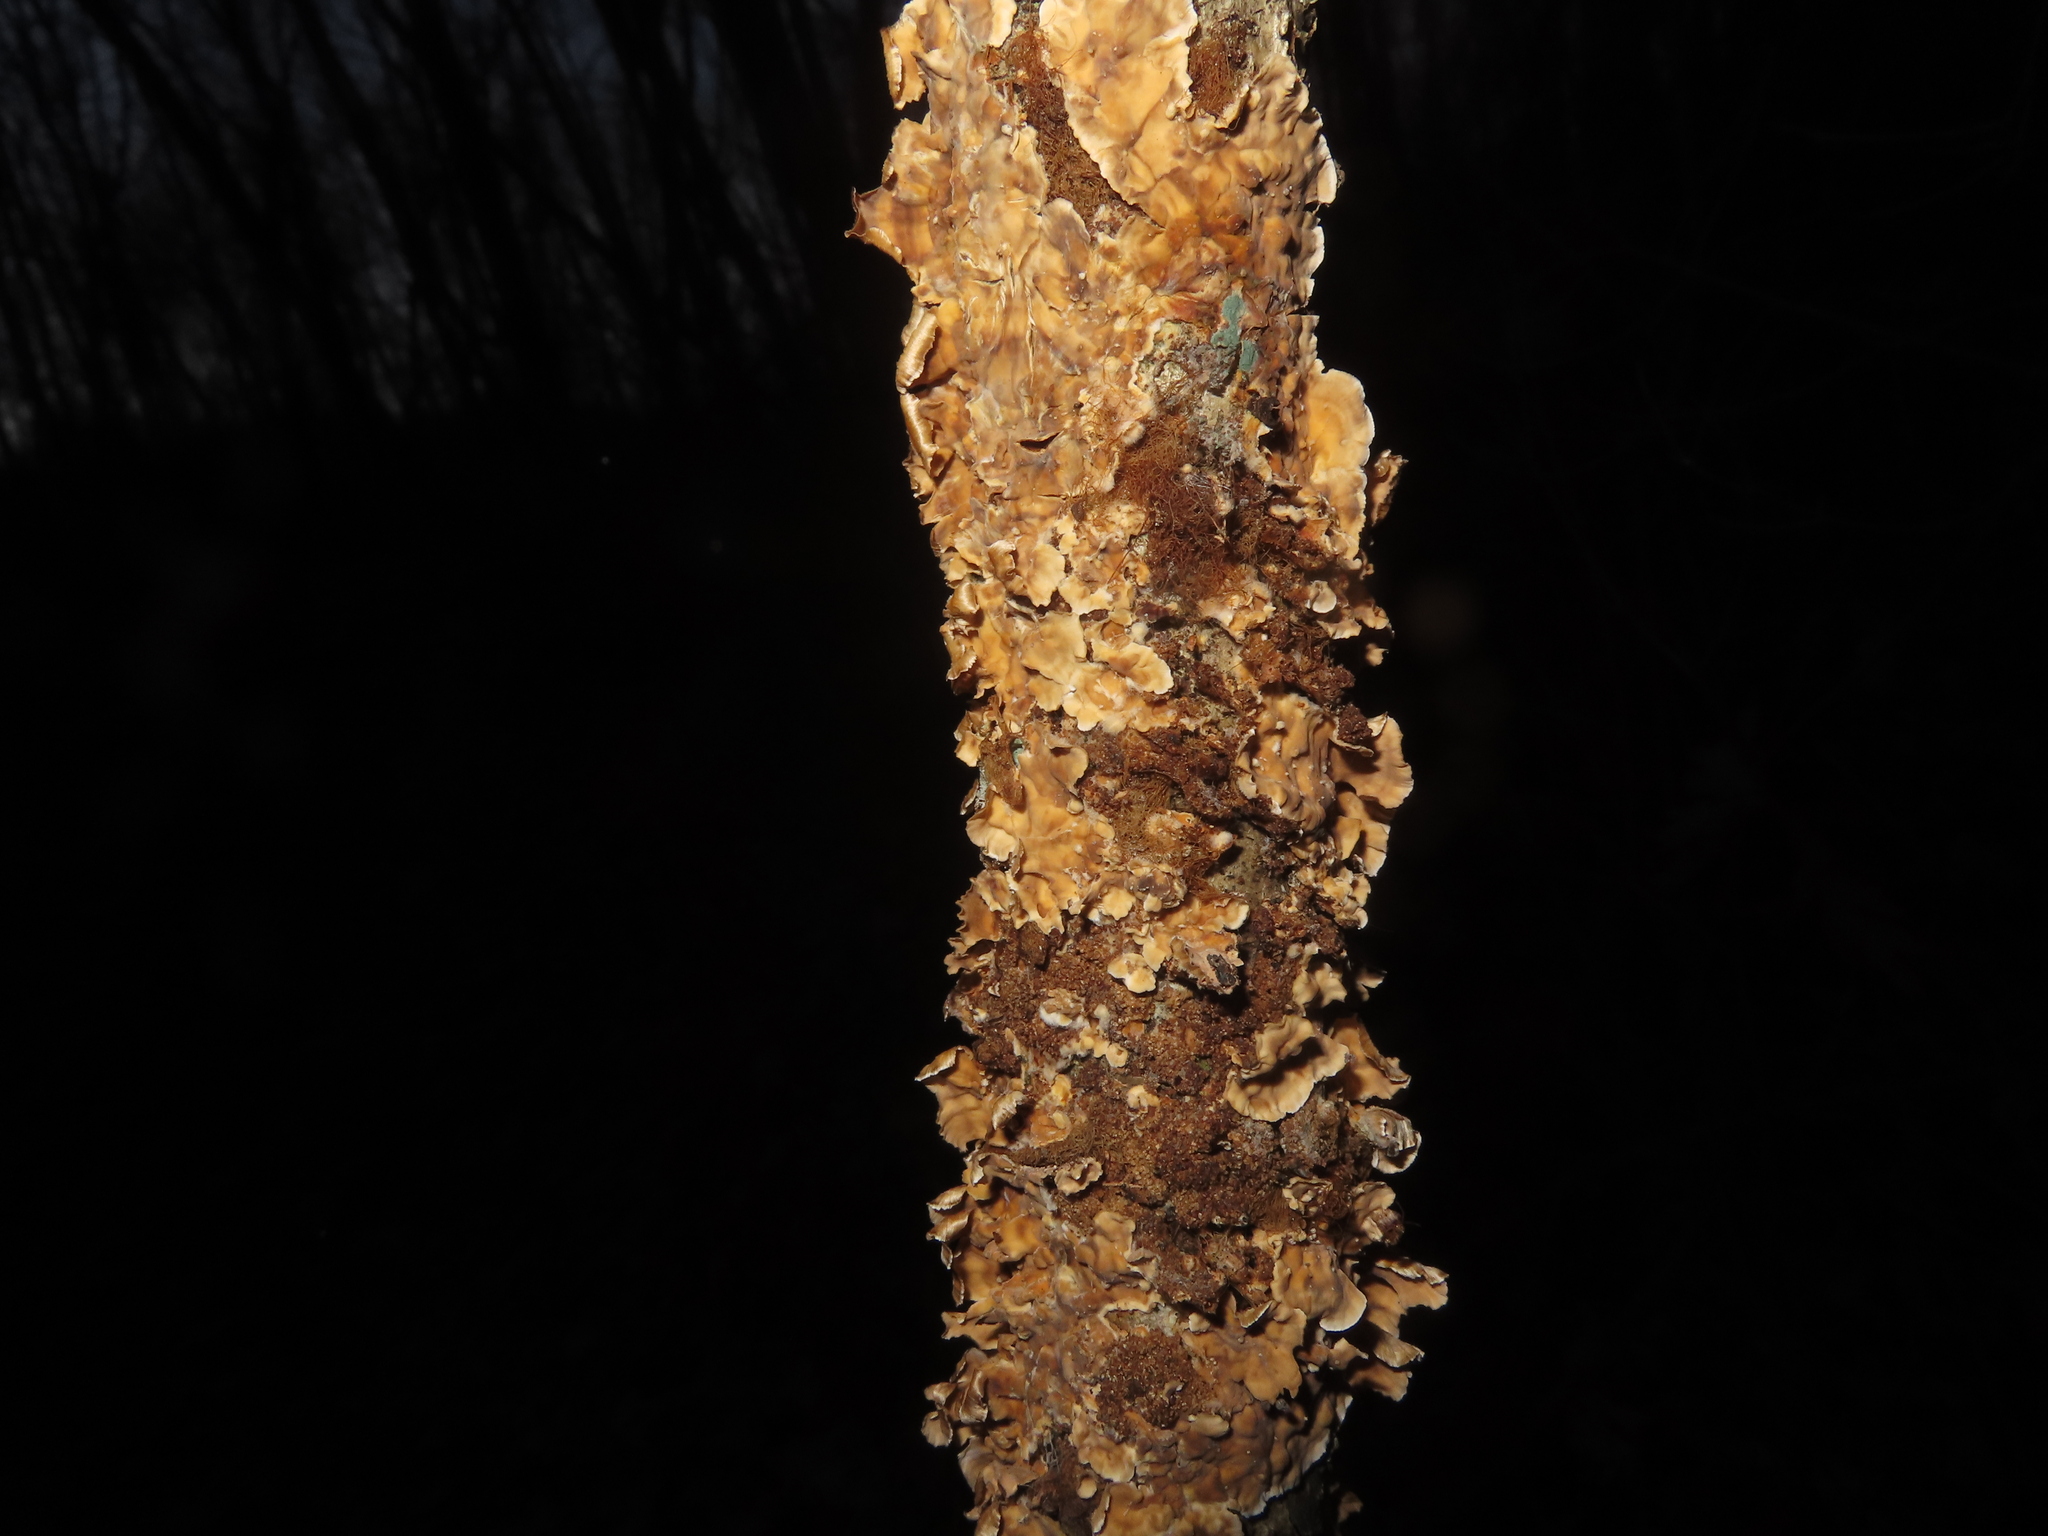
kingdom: Fungi
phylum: Basidiomycota
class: Agaricomycetes
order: Russulales
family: Stereaceae
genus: Stereum
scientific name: Stereum complicatum
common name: Crowded parchment
